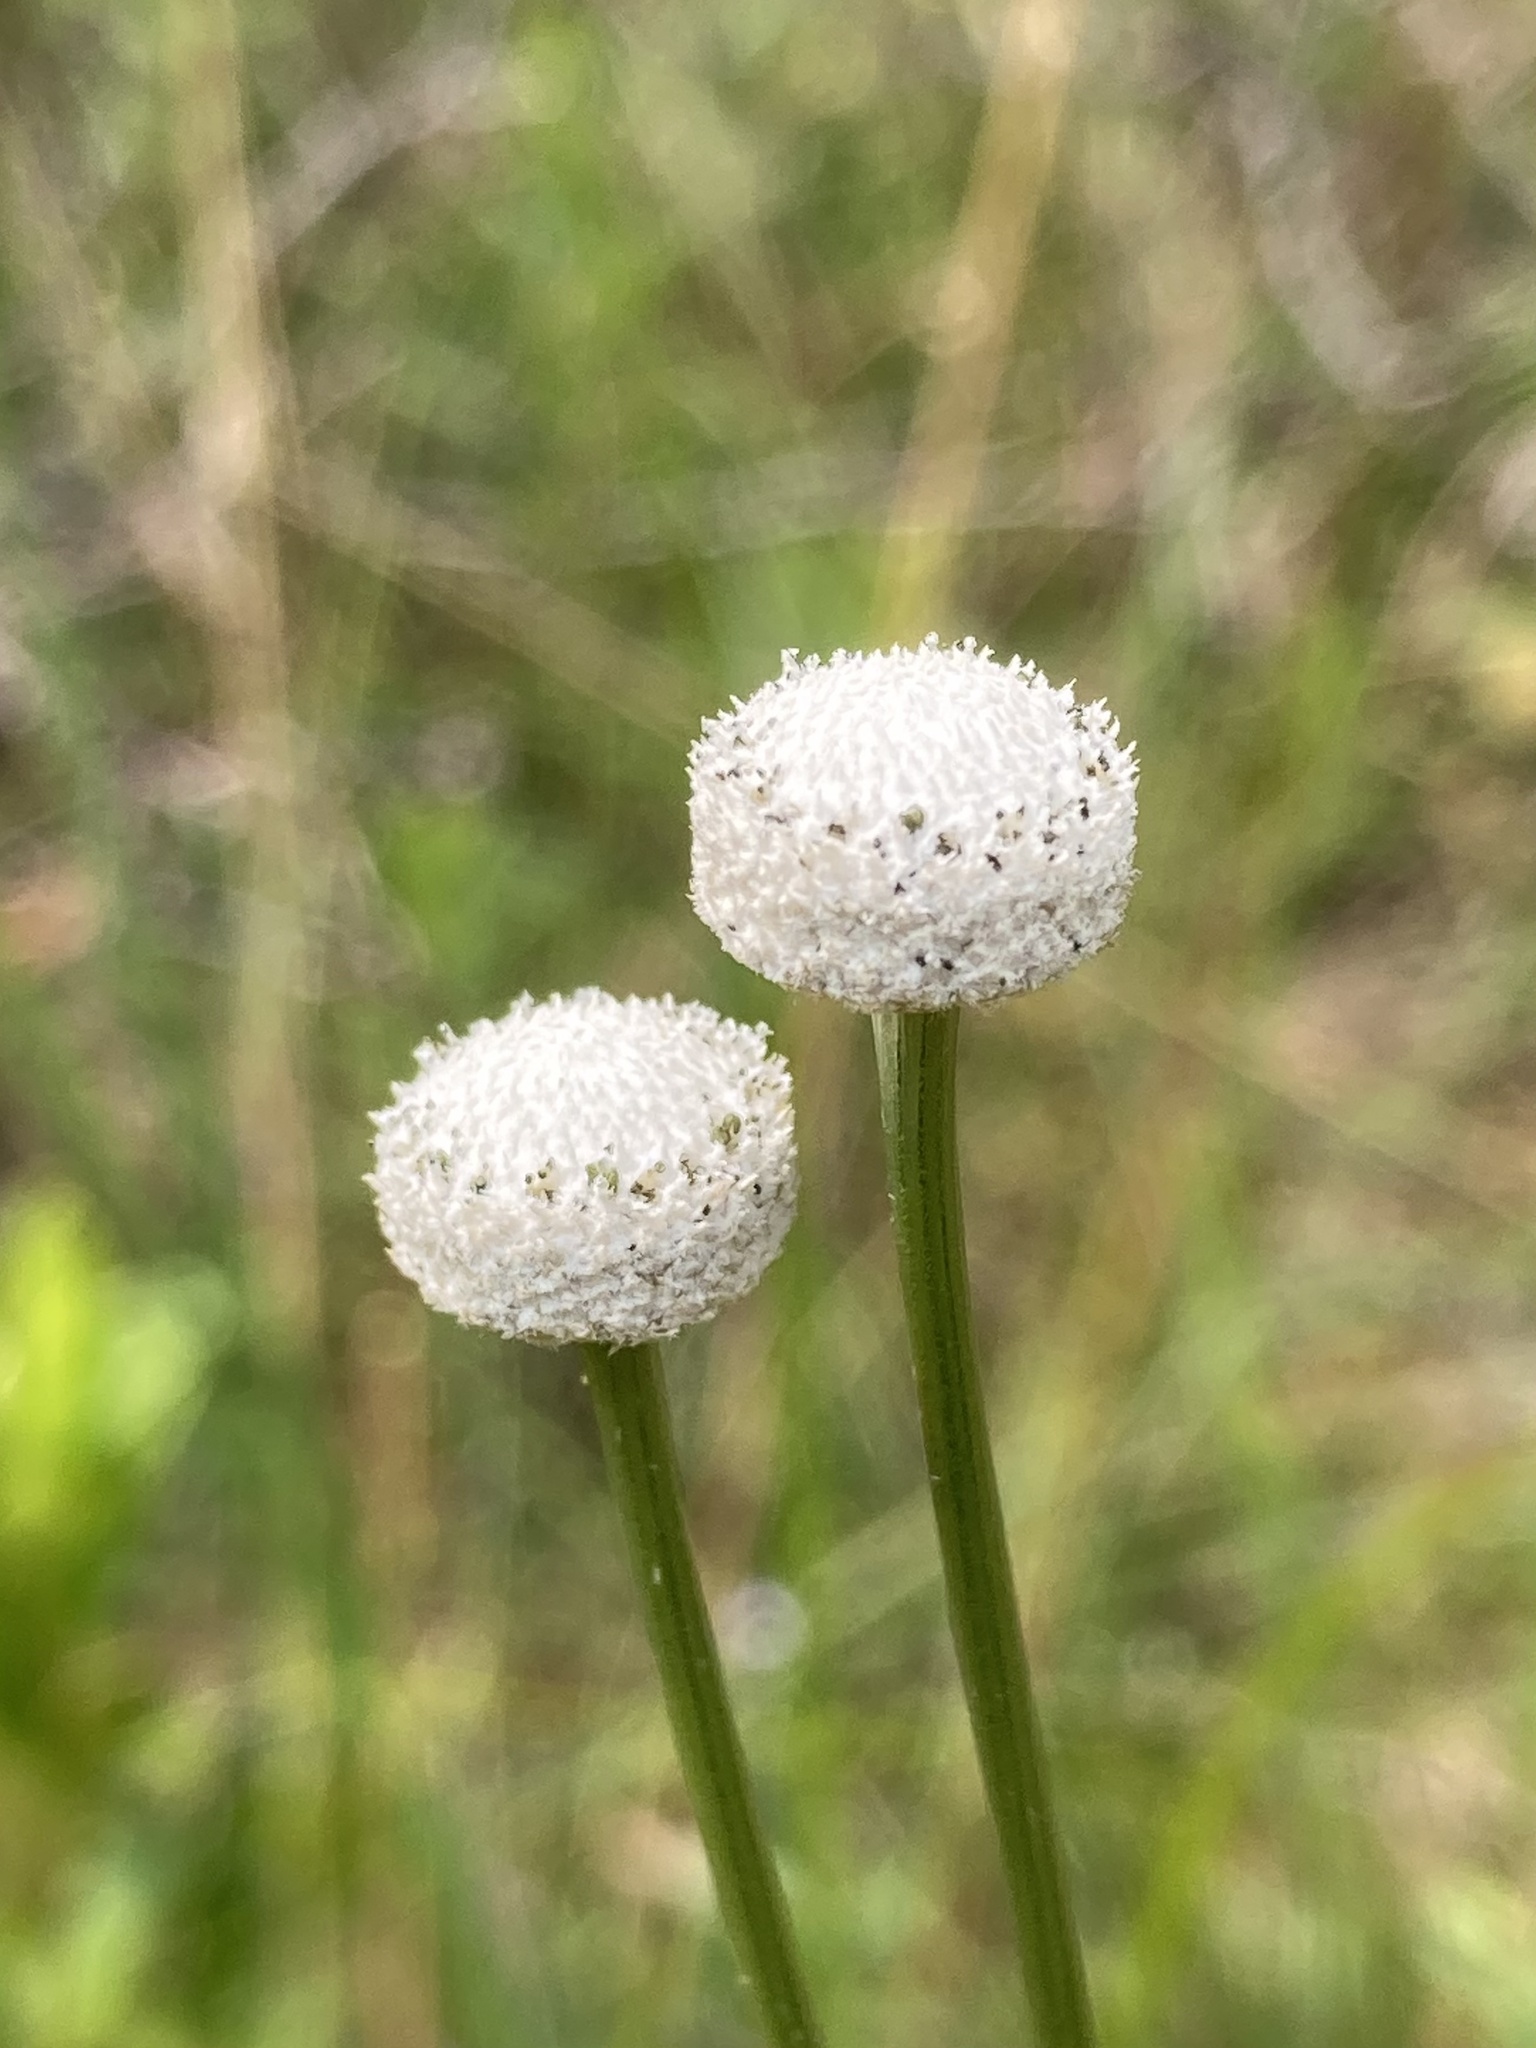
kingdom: Plantae
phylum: Tracheophyta
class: Liliopsida
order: Poales
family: Eriocaulaceae
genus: Eriocaulon
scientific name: Eriocaulon decangulare
